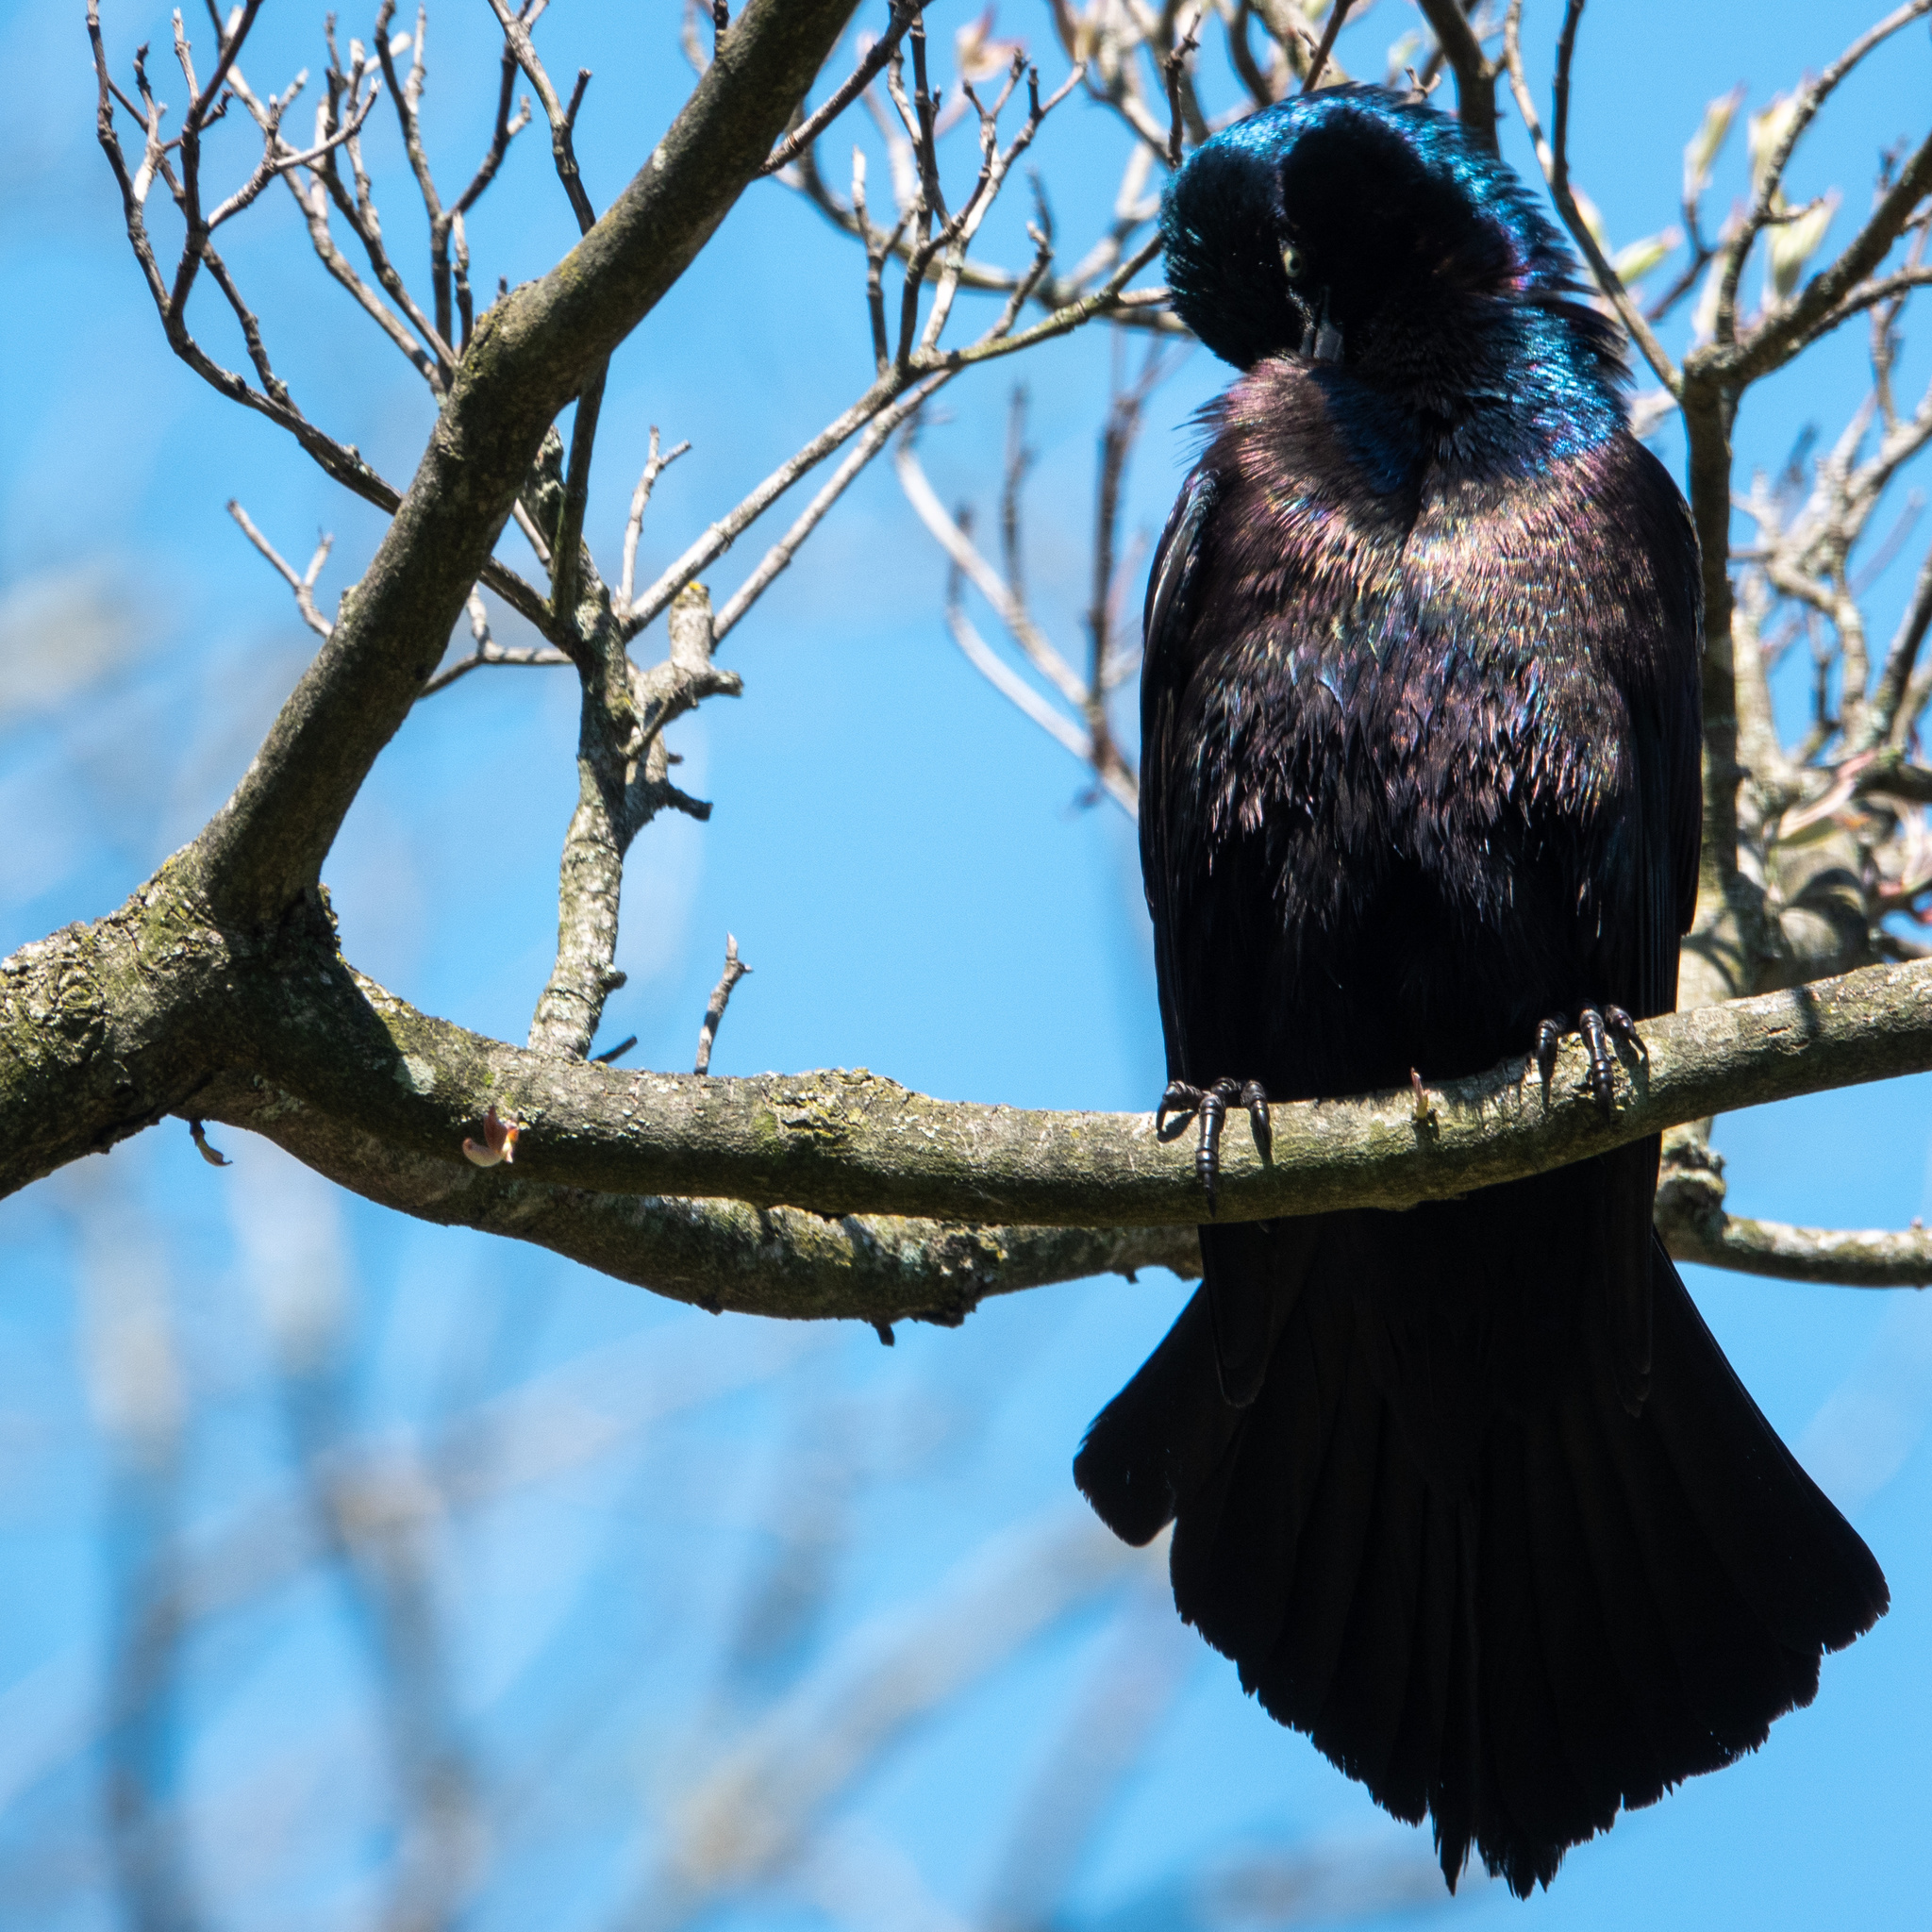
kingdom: Animalia
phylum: Chordata
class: Aves
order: Passeriformes
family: Icteridae
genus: Quiscalus
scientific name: Quiscalus quiscula
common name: Common grackle
